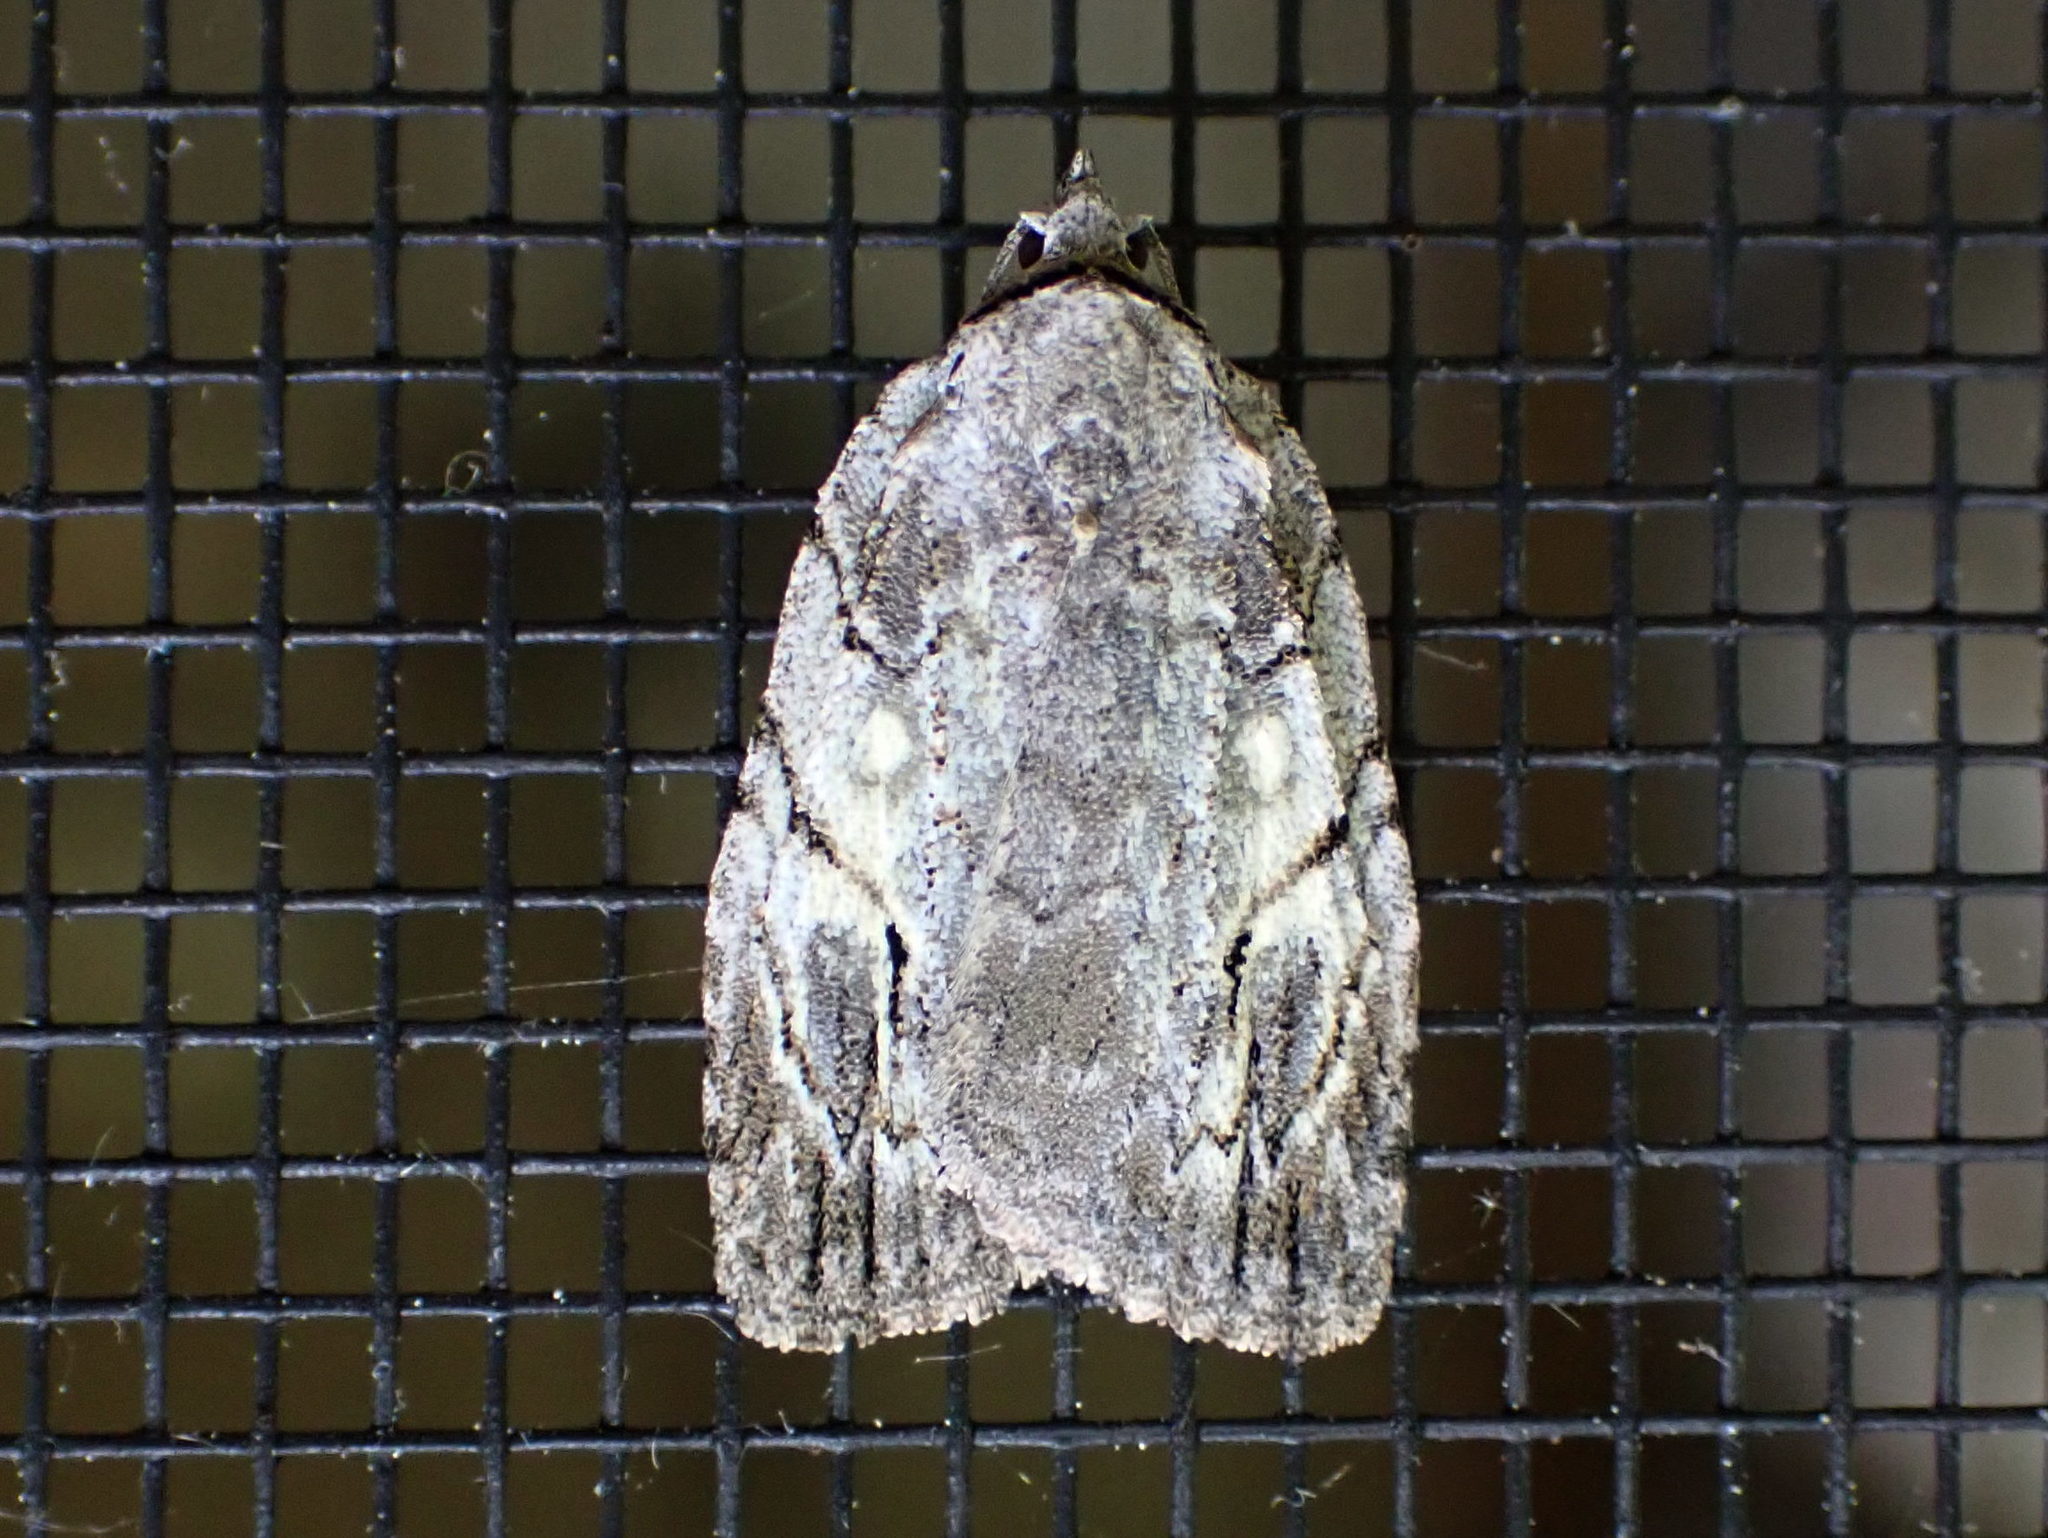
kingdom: Animalia
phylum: Arthropoda
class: Insecta
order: Lepidoptera
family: Noctuidae
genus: Balsa
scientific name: Balsa labecula
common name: White-blotched balsa moth
